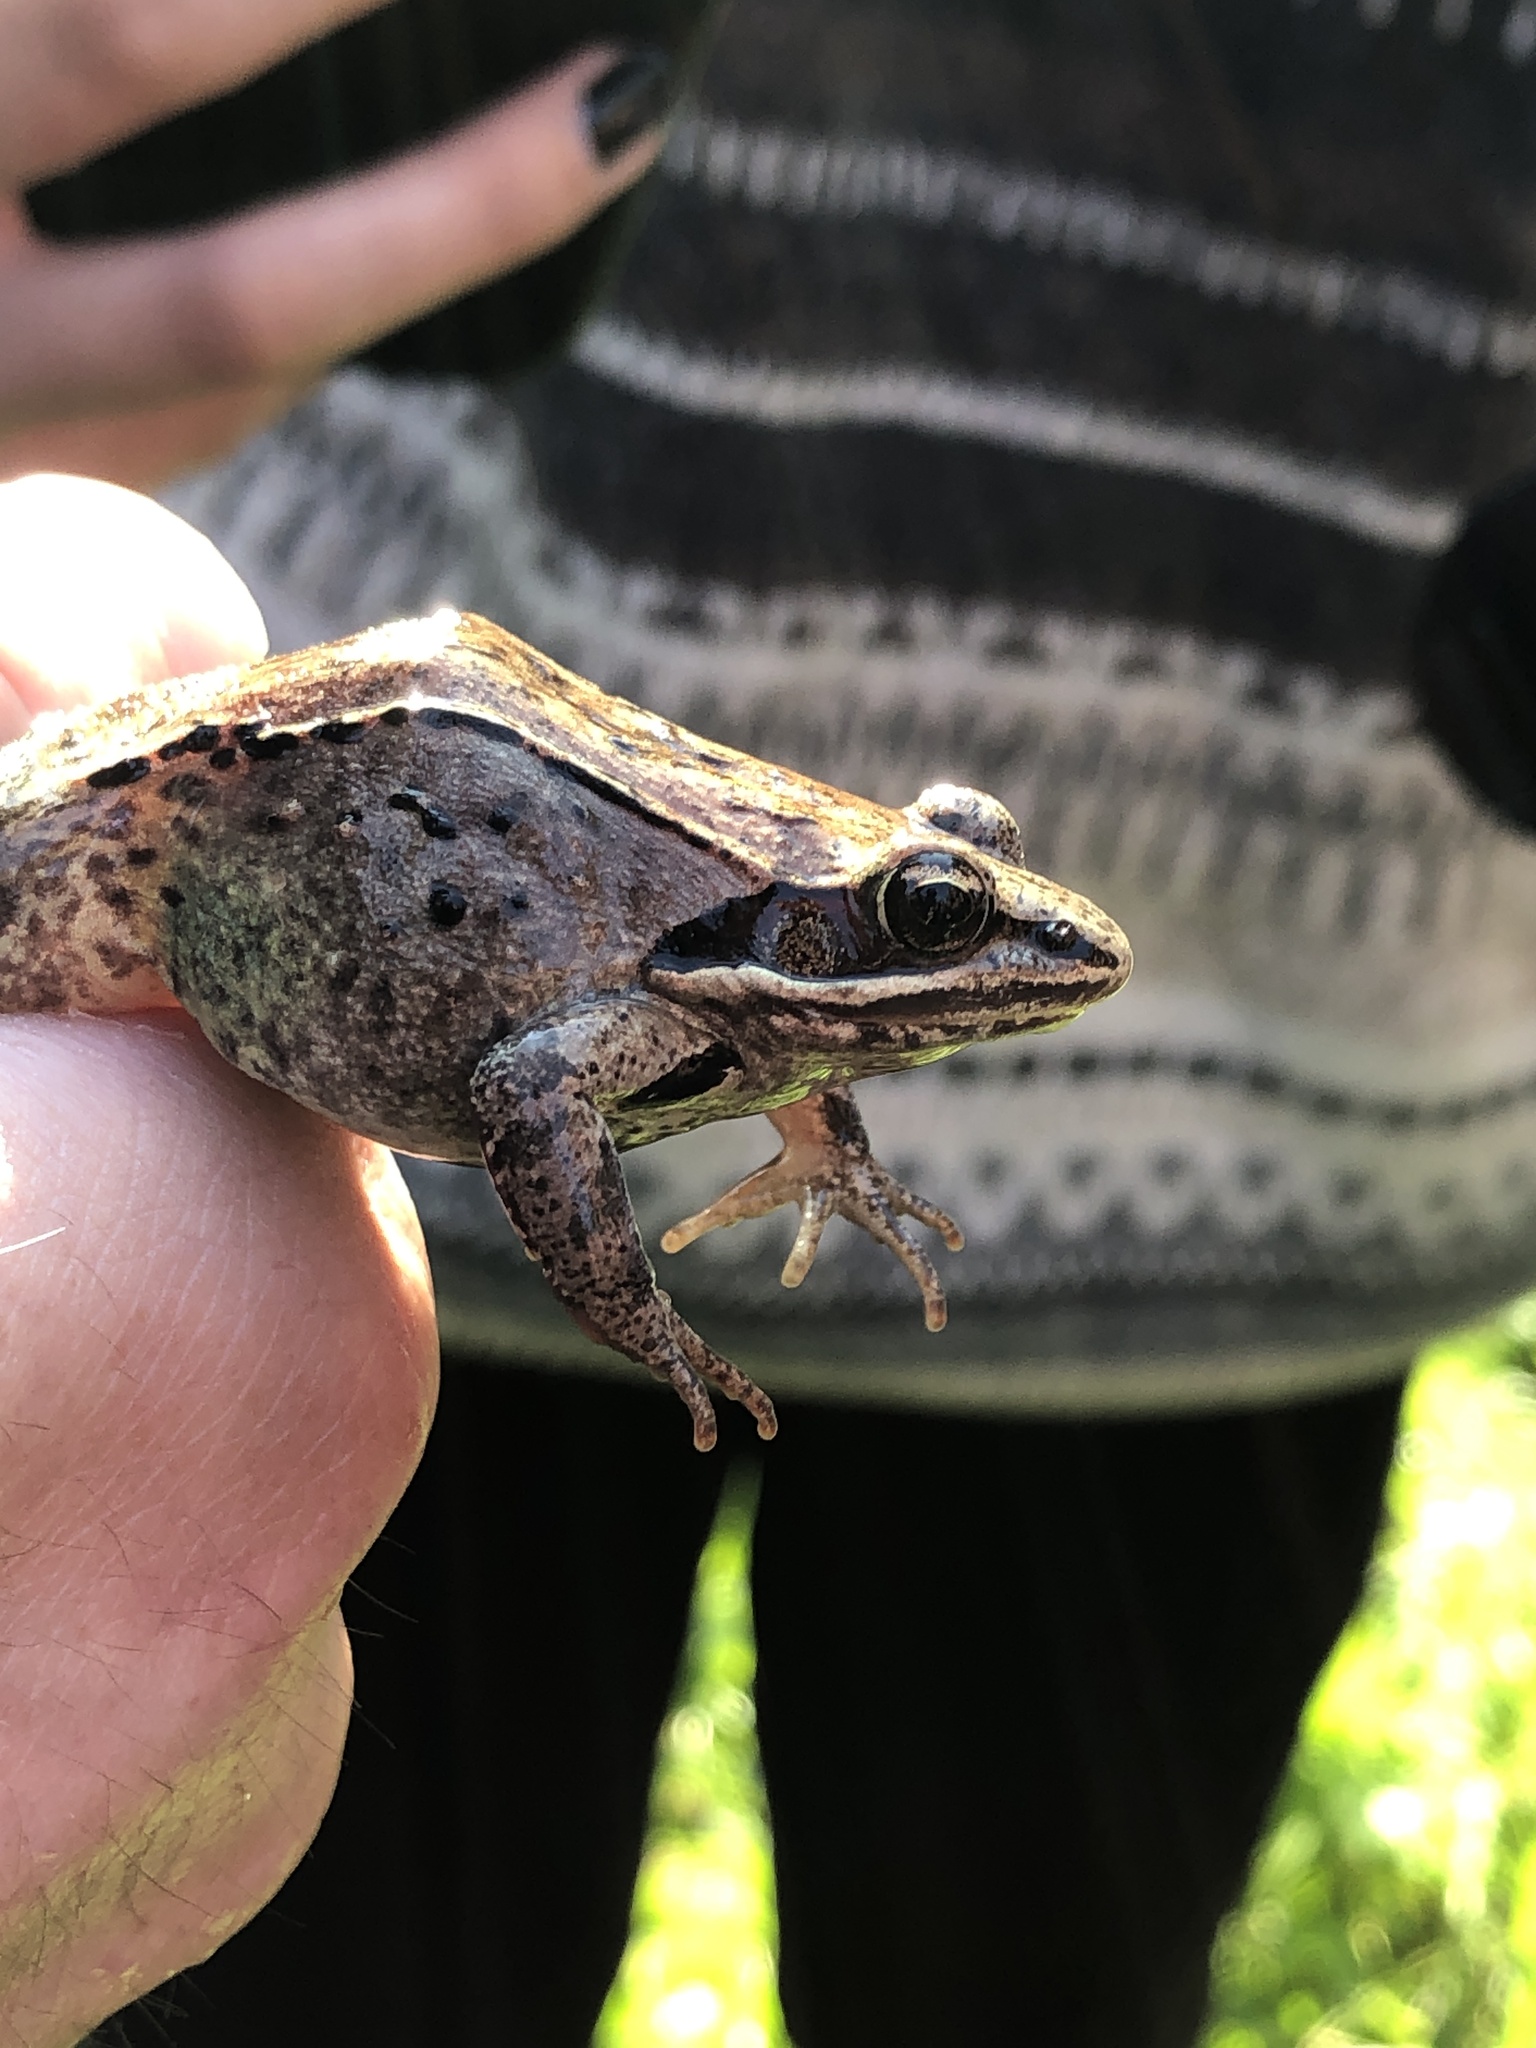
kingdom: Animalia
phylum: Chordata
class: Amphibia
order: Anura
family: Ranidae
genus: Lithobates
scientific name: Lithobates sylvaticus
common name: Wood frog
